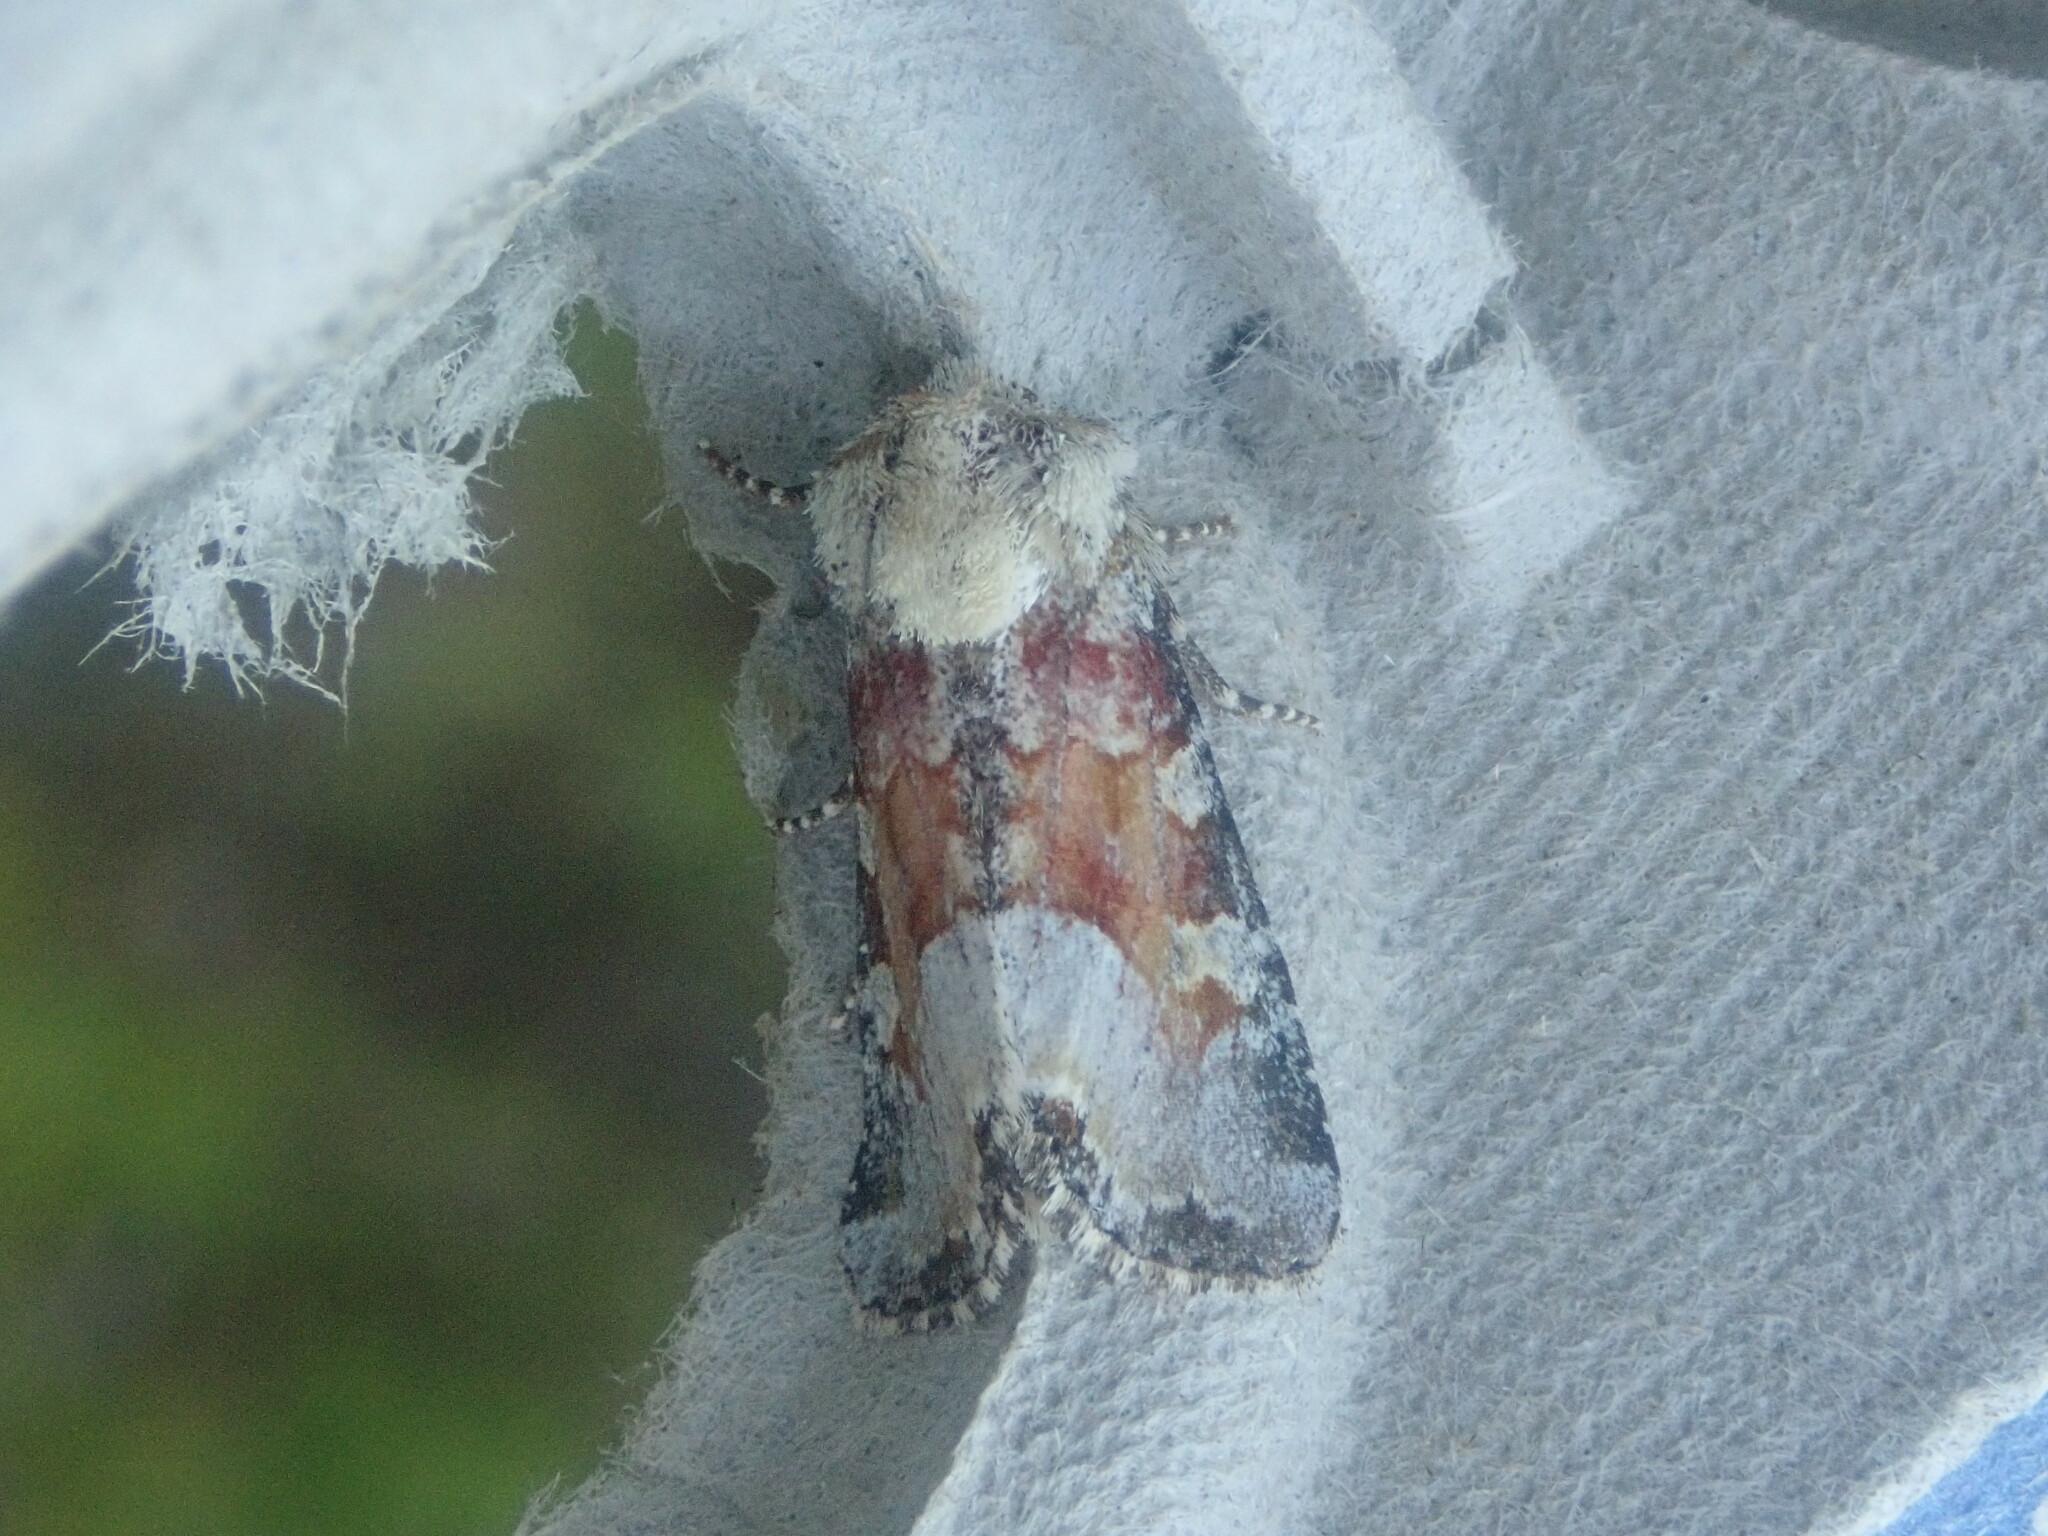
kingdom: Animalia
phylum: Arthropoda
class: Insecta
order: Lepidoptera
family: Noctuidae
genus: Oligia
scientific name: Oligia bridghamii
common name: Bridgham's brocade moth
